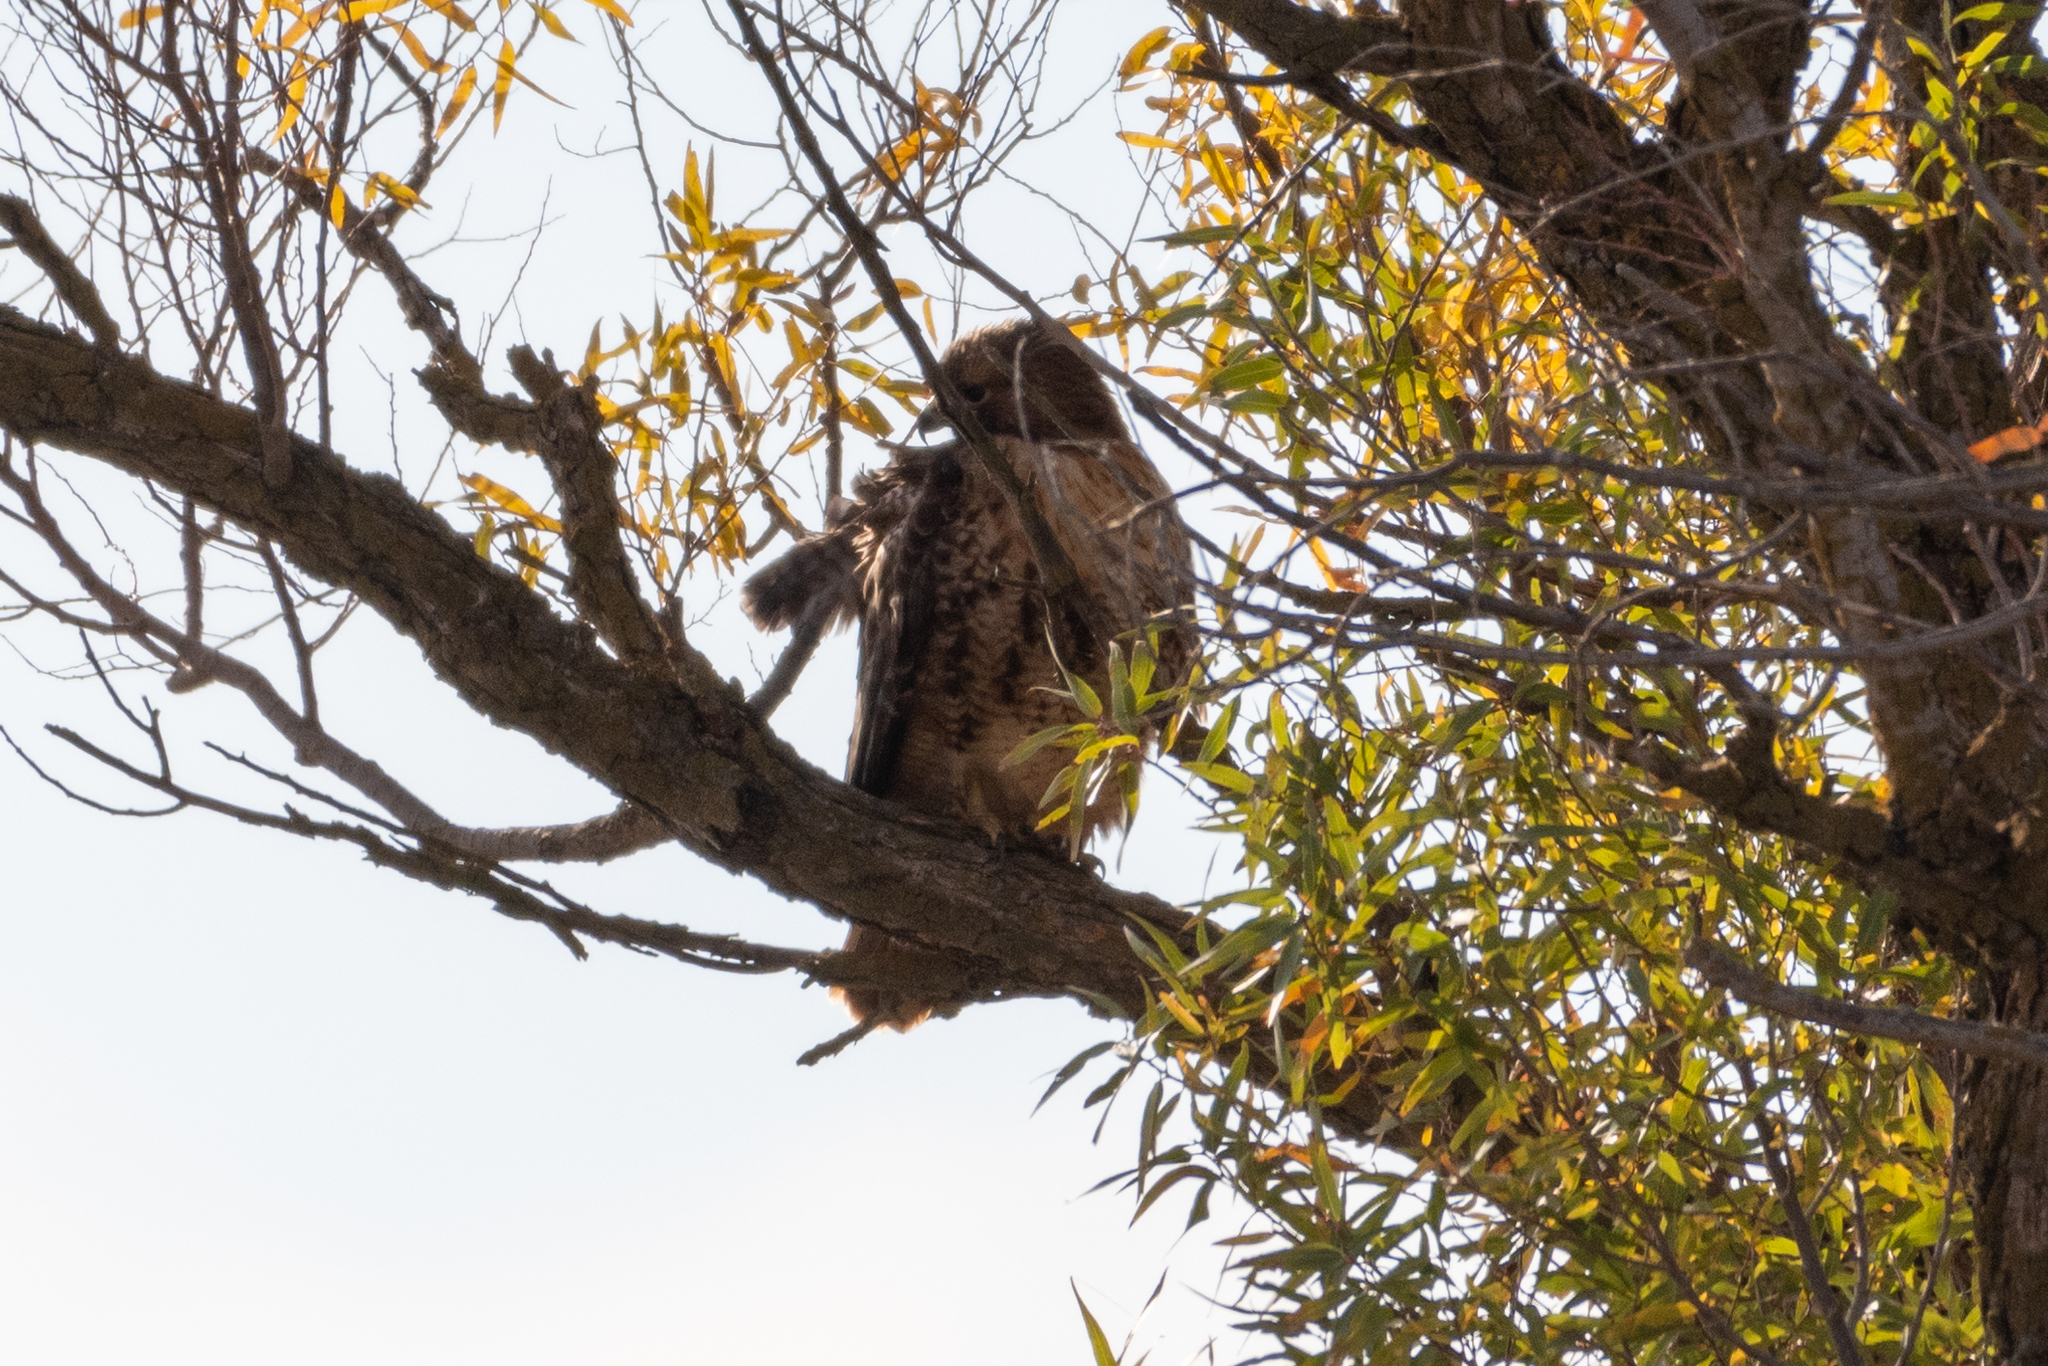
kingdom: Animalia
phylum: Chordata
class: Aves
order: Accipitriformes
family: Accipitridae
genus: Buteo
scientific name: Buteo jamaicensis
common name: Red-tailed hawk
